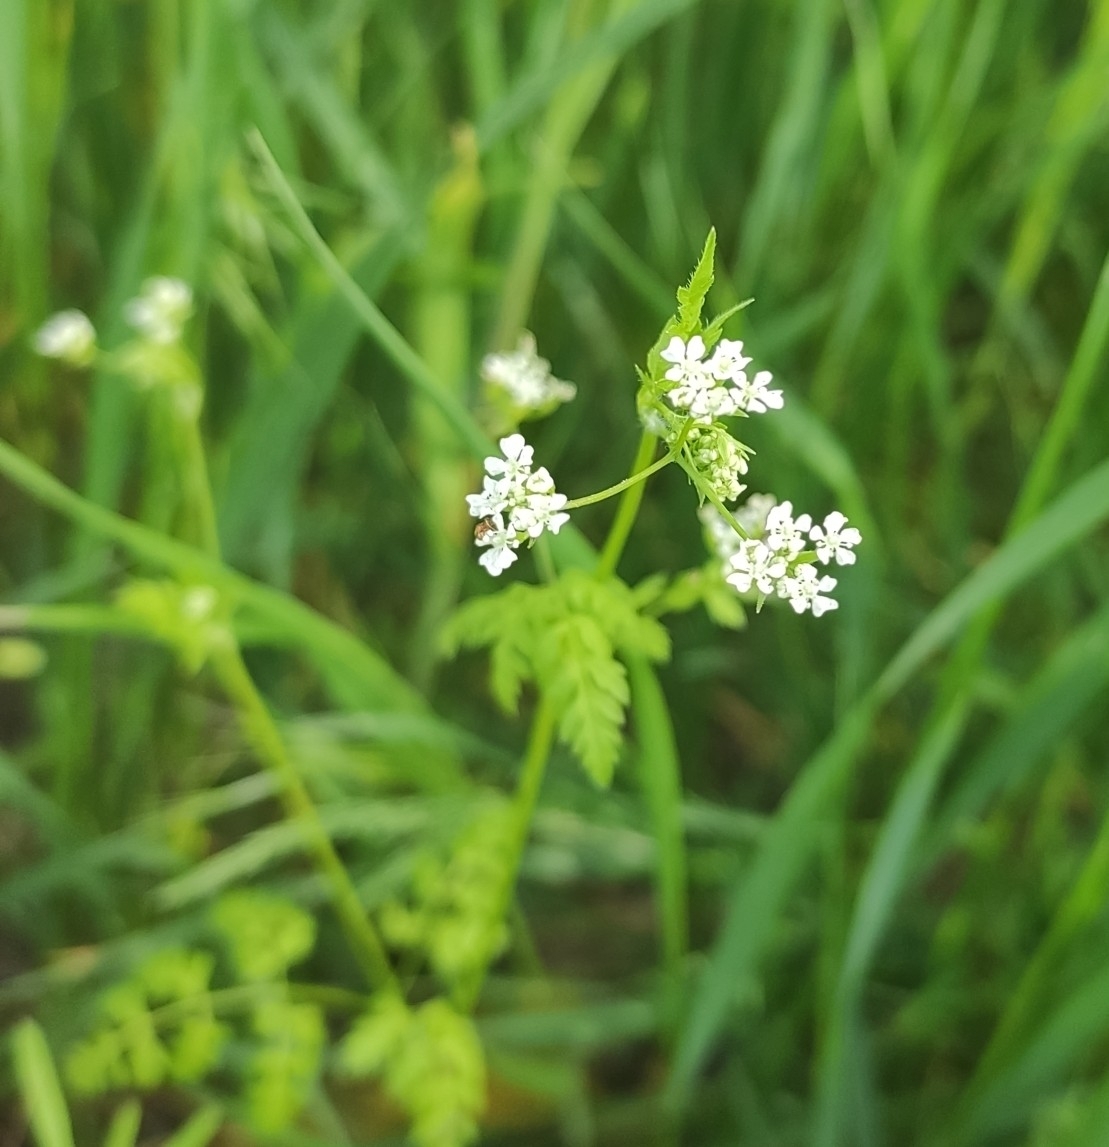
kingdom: Plantae
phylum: Tracheophyta
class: Magnoliopsida
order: Apiales
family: Apiaceae
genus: Anthriscus
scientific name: Anthriscus cerefolium
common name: Garden chervil
